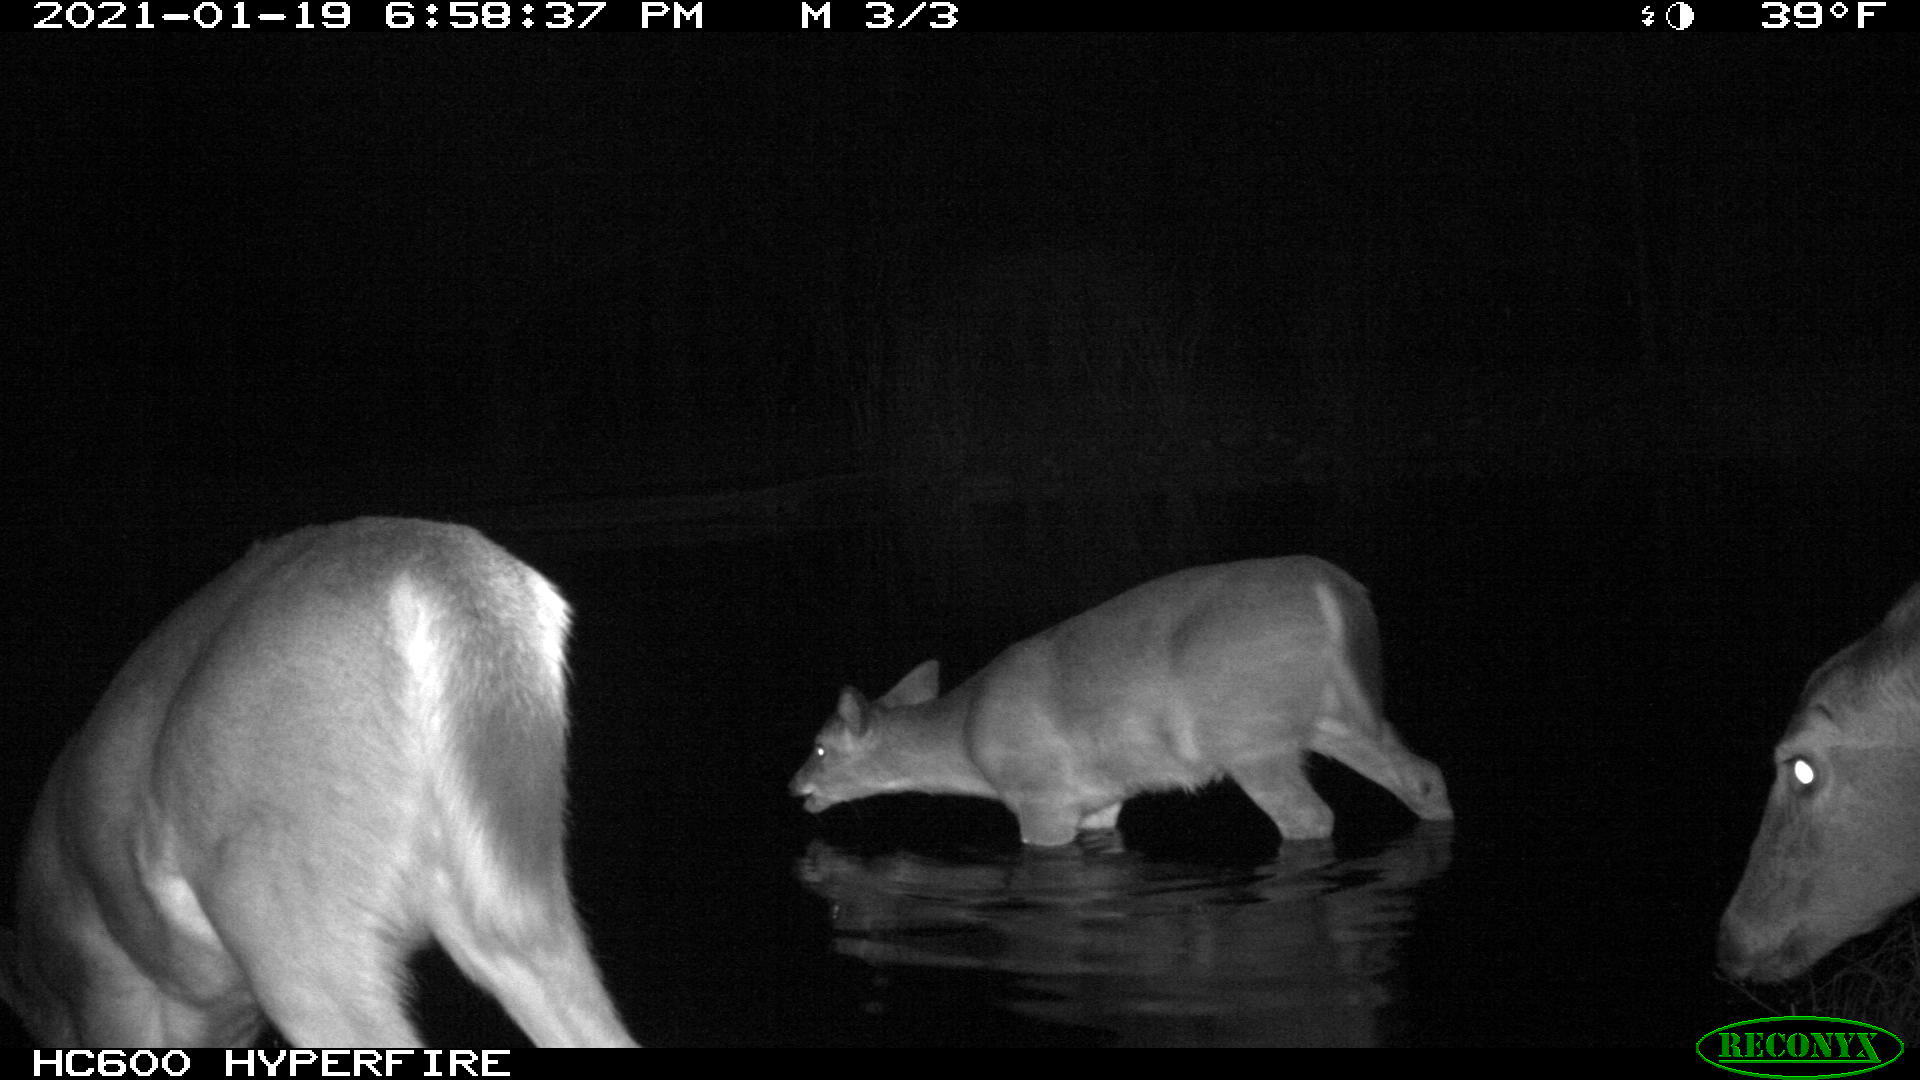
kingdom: Animalia
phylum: Chordata
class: Mammalia
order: Artiodactyla
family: Cervidae
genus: Odocoileus
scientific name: Odocoileus virginianus
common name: White-tailed deer
